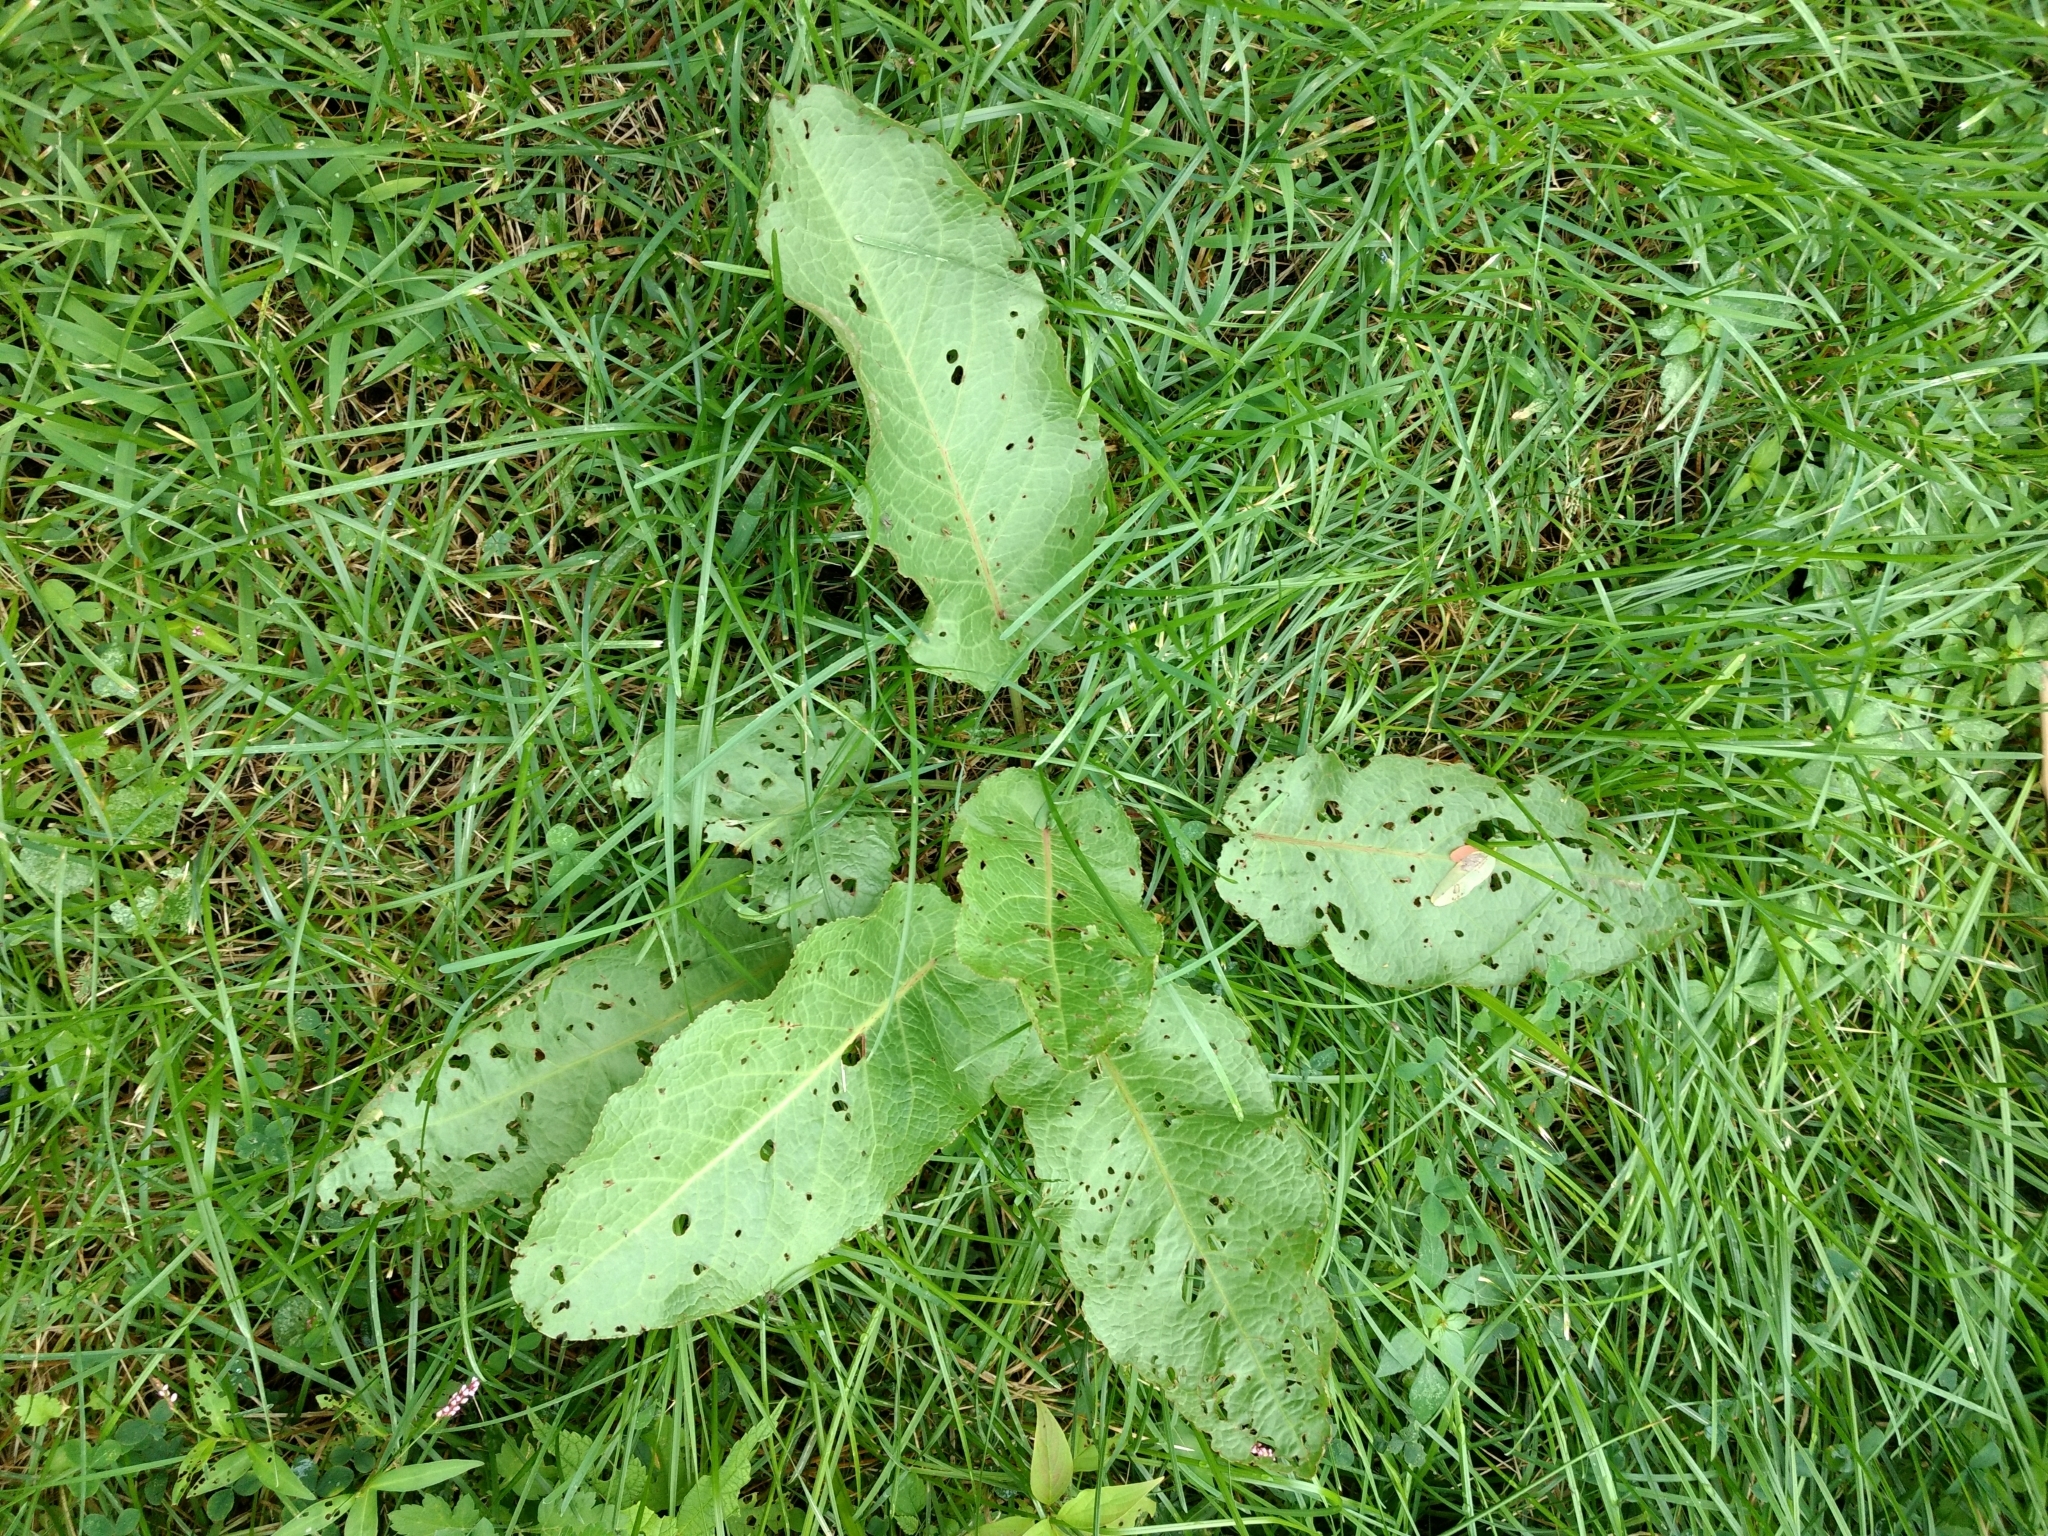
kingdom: Plantae
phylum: Tracheophyta
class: Magnoliopsida
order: Caryophyllales
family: Polygonaceae
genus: Rumex
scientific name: Rumex obtusifolius
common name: Bitter dock
